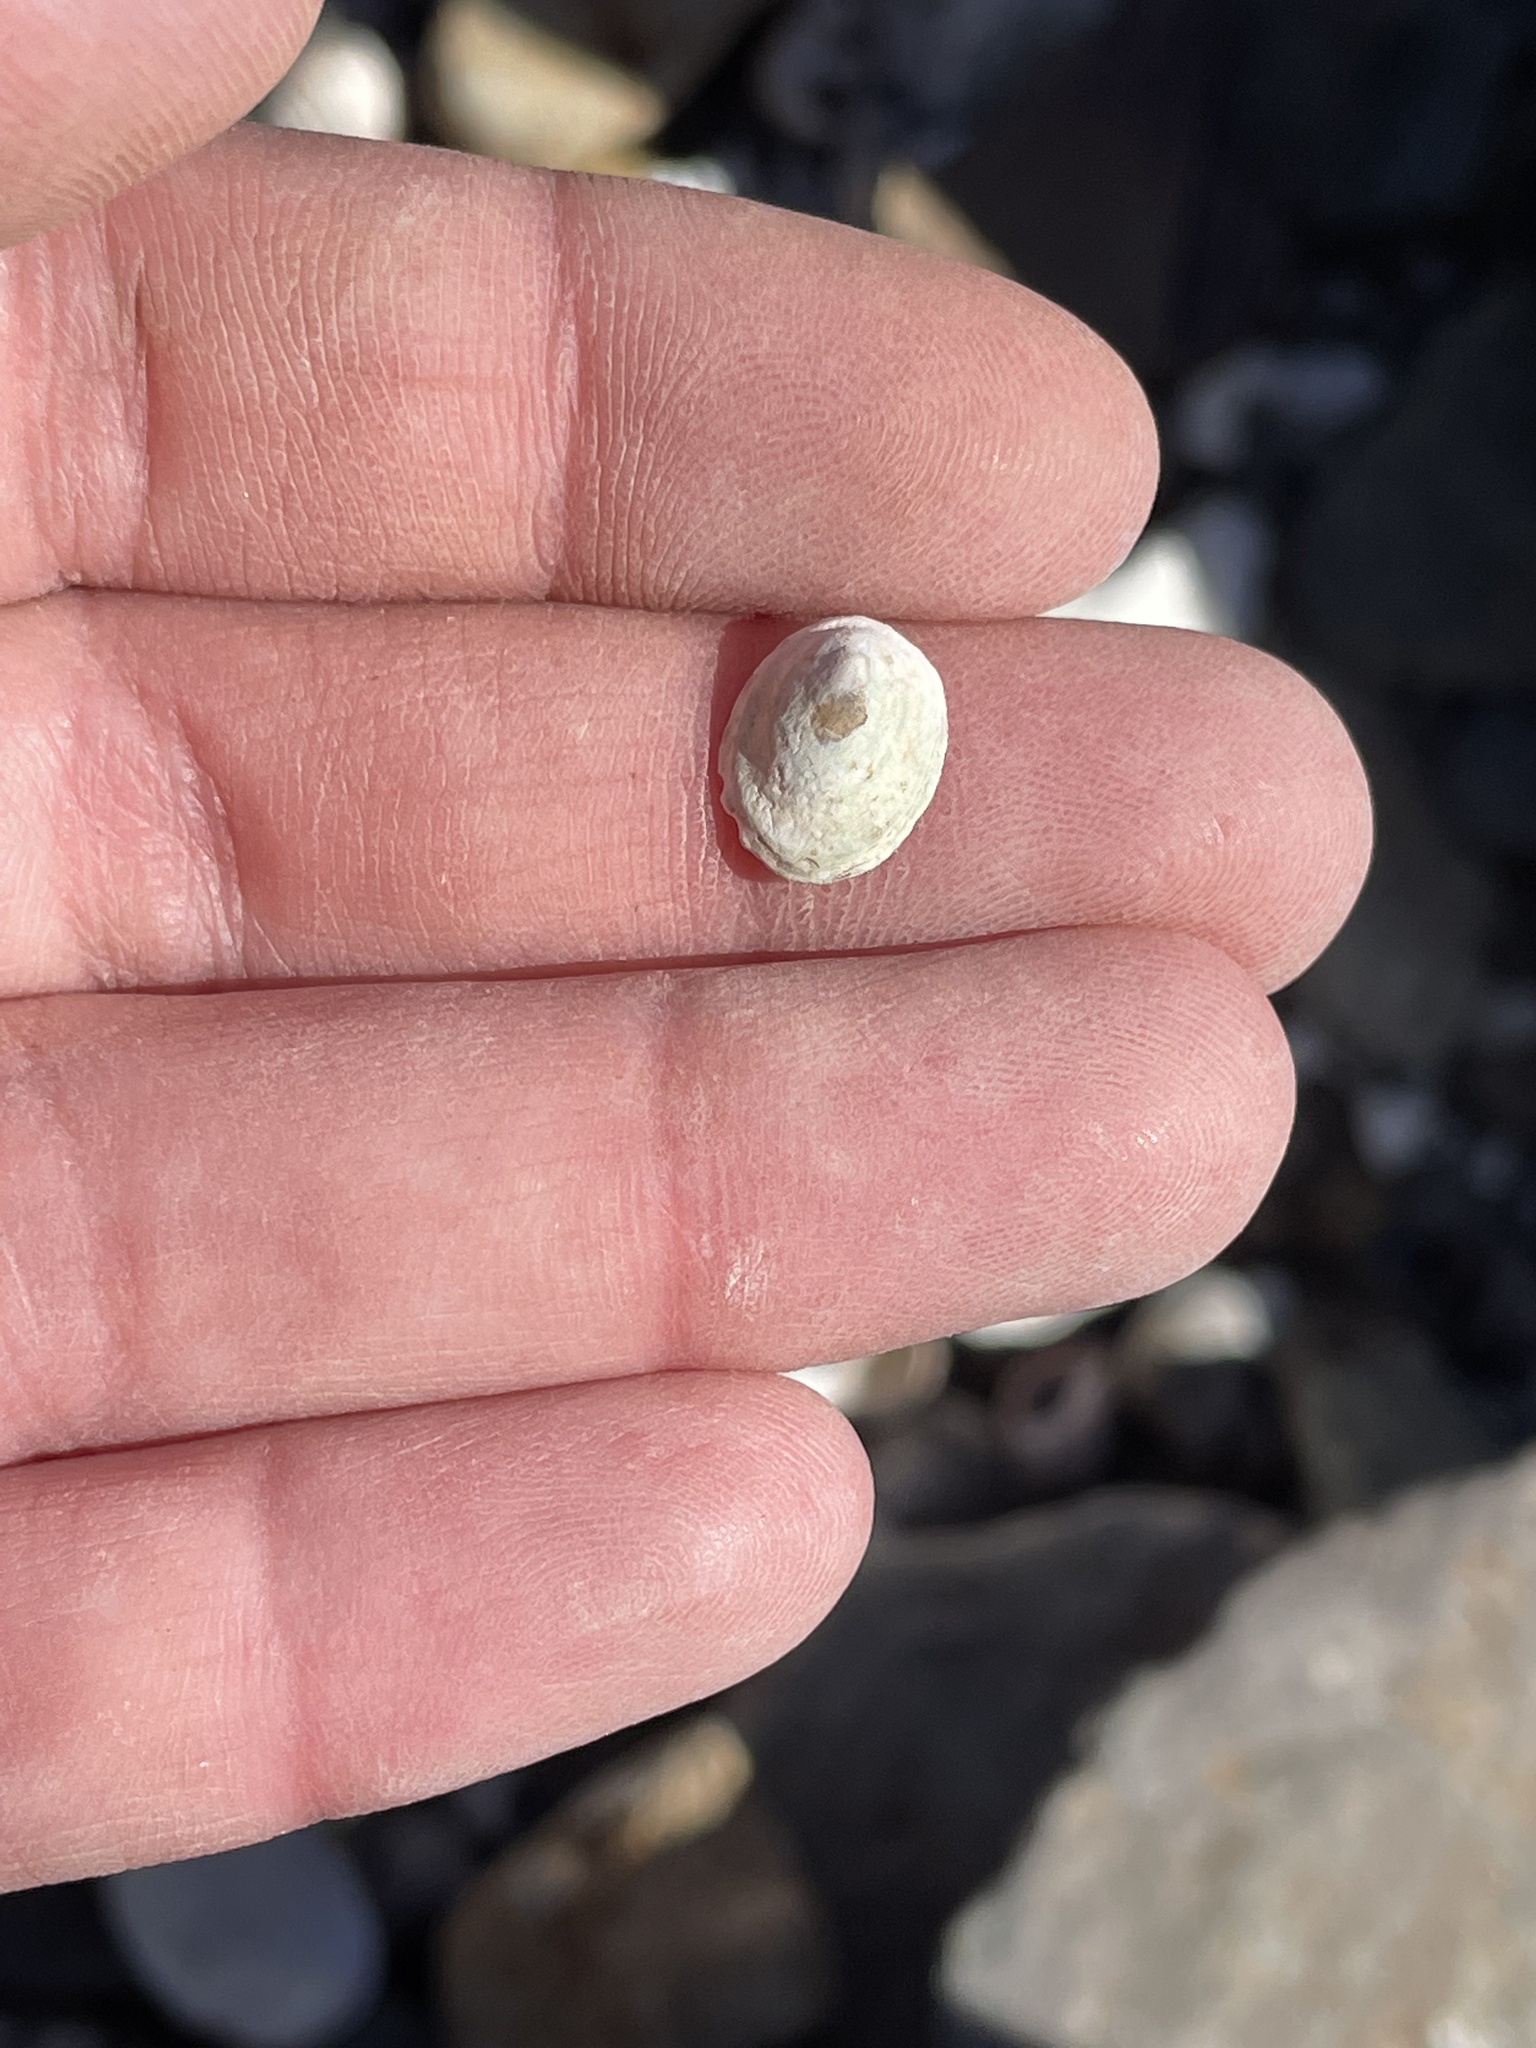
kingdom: Animalia
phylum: Mollusca
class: Gastropoda
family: Lottiidae
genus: Testudinalia
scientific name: Testudinalia testudinalis
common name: Common tortoiseshell limpet
